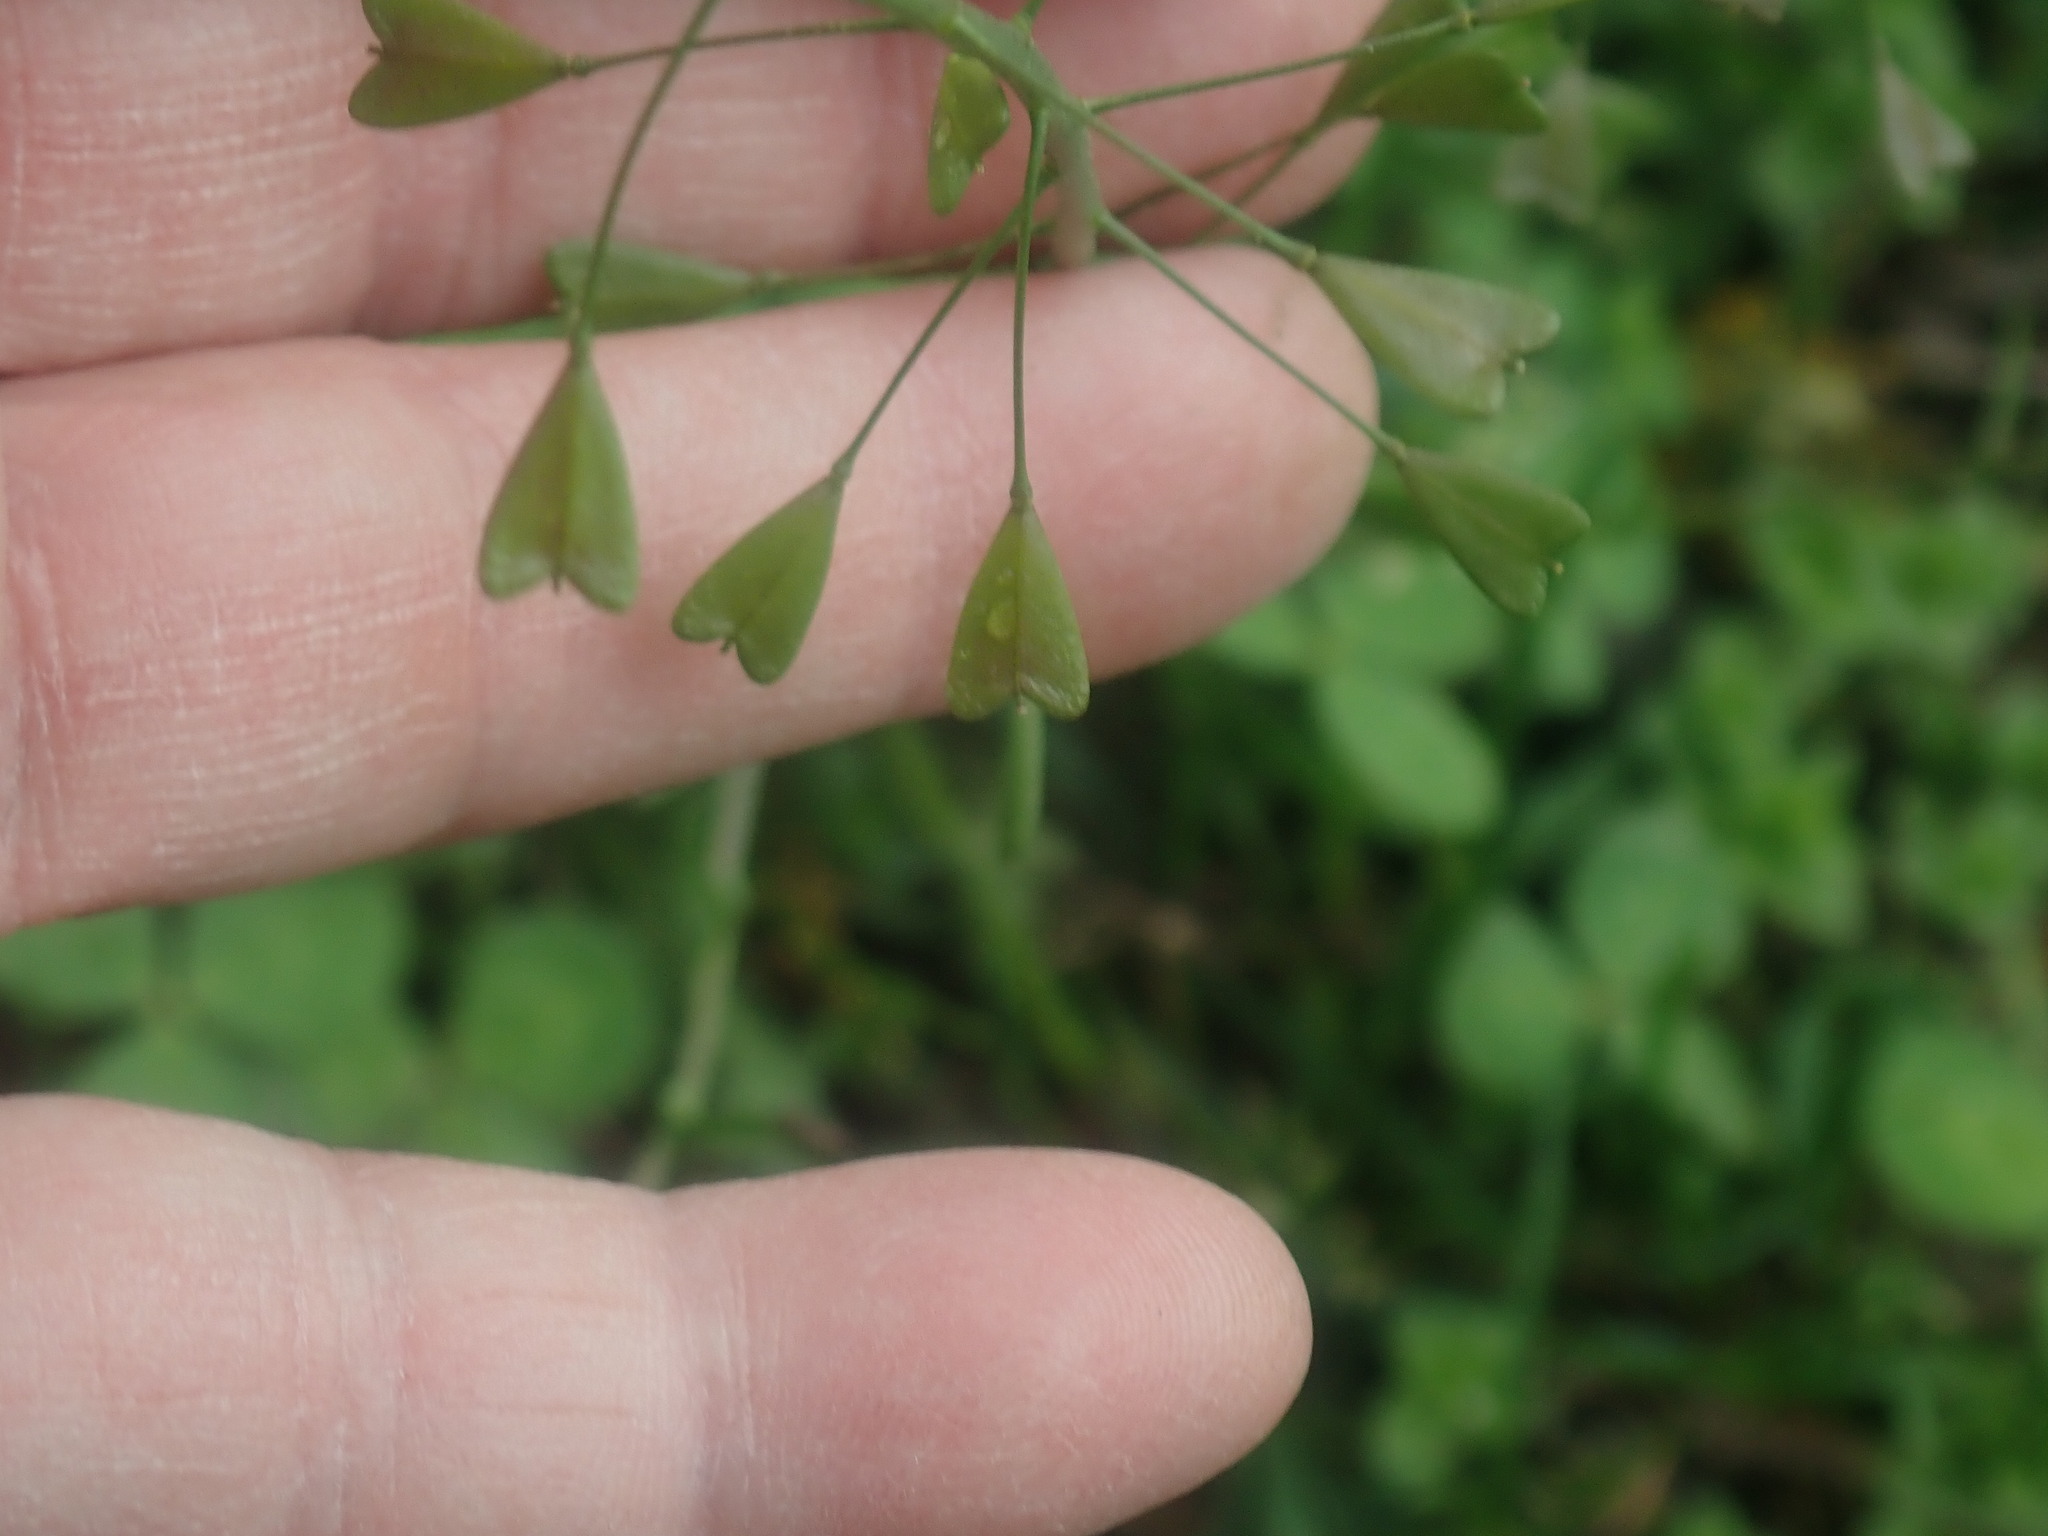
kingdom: Plantae
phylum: Tracheophyta
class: Magnoliopsida
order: Brassicales
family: Brassicaceae
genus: Capsella
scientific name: Capsella bursa-pastoris
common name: Shepherd's purse
